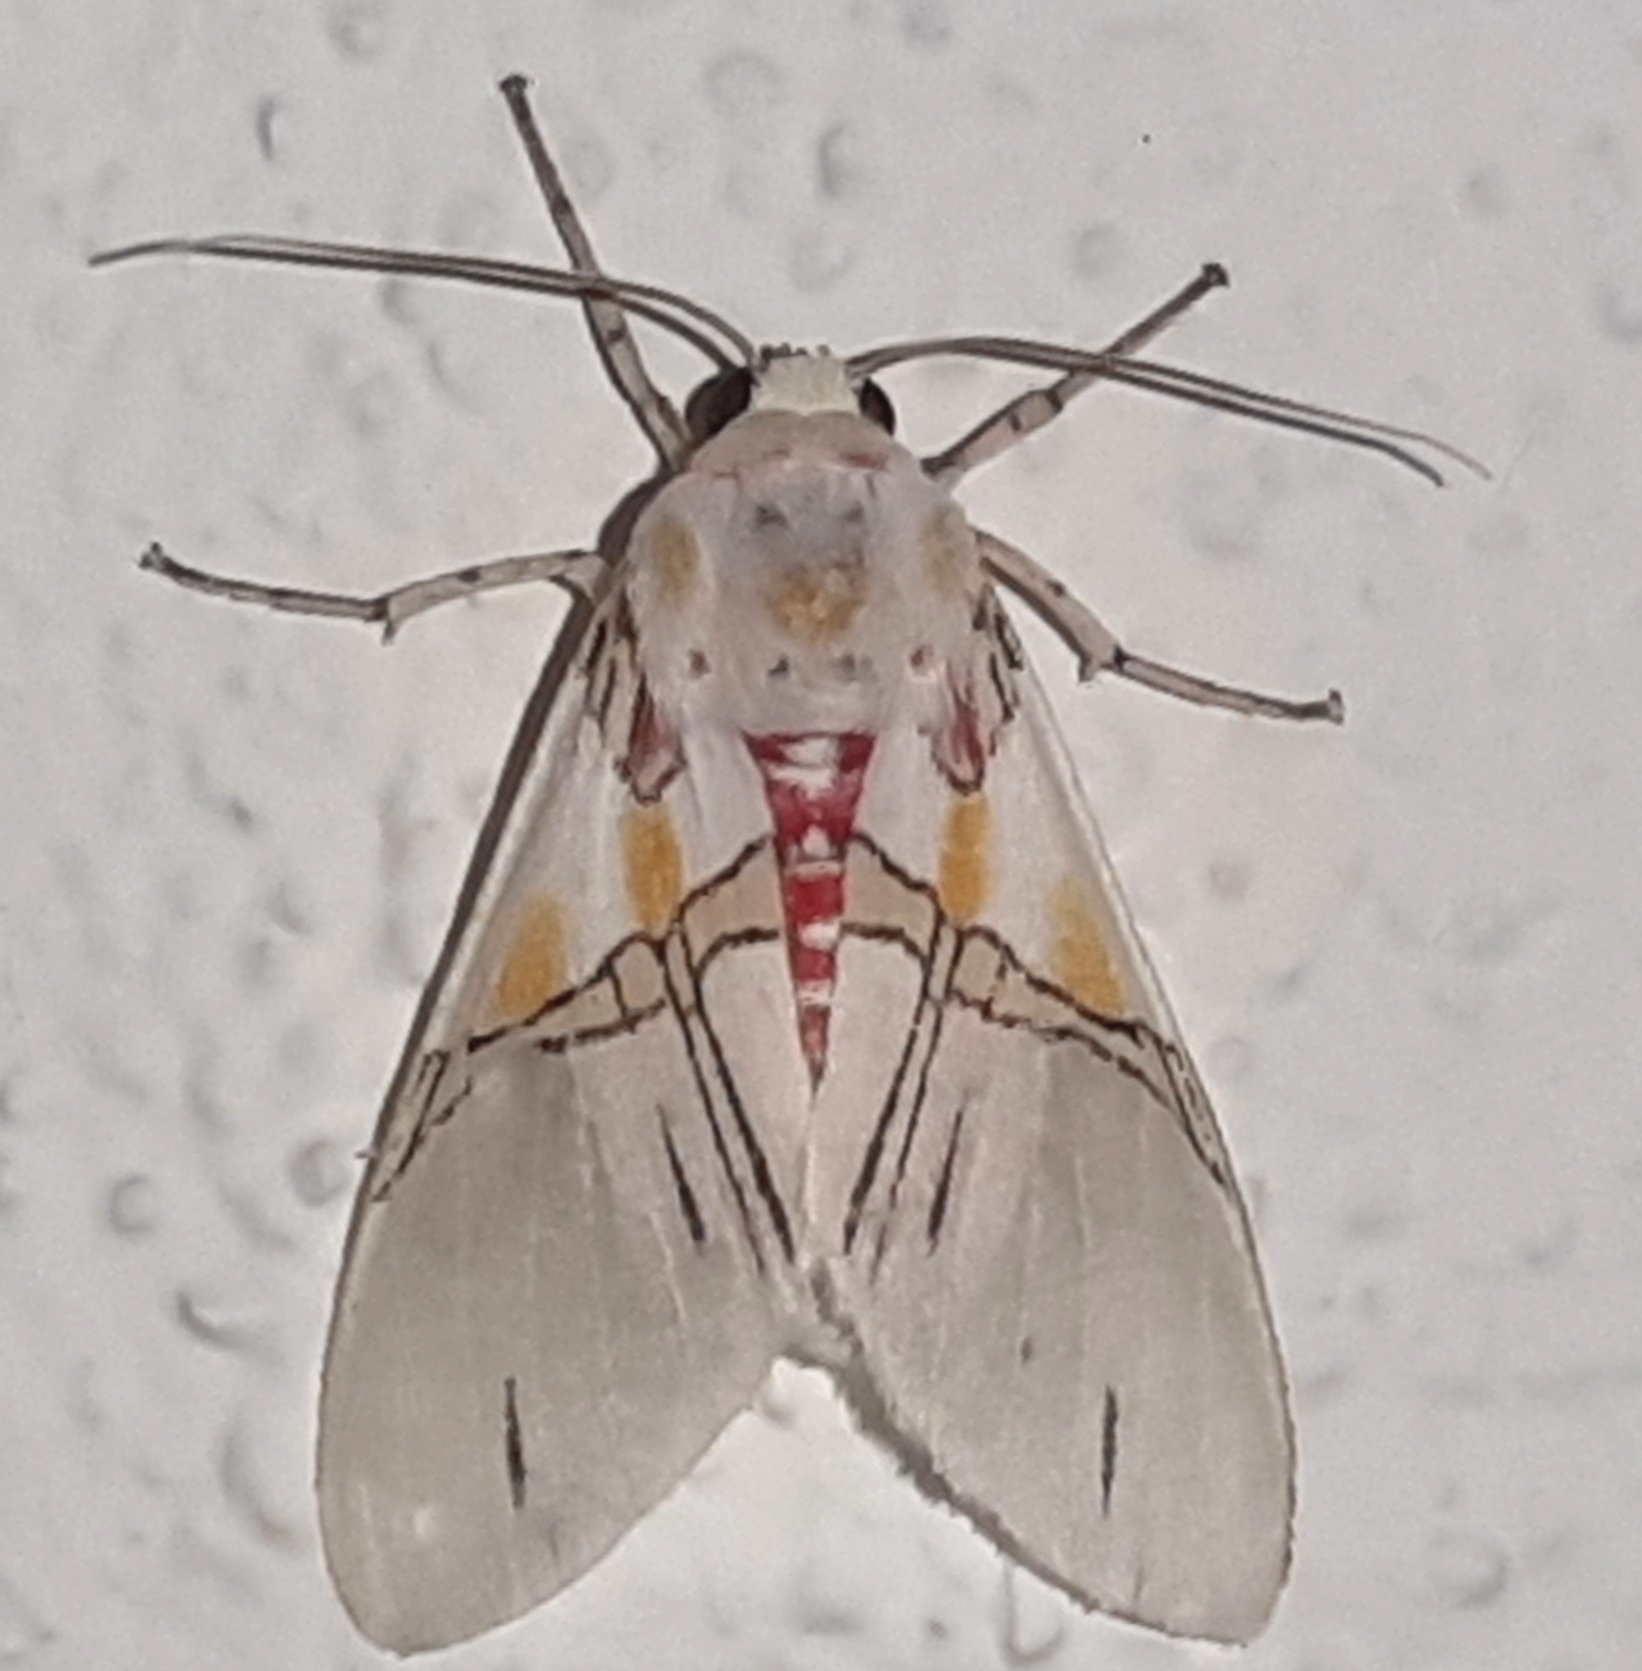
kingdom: Animalia
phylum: Arthropoda
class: Insecta
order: Lepidoptera
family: Erebidae
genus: Idalus
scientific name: Idalus crinis
